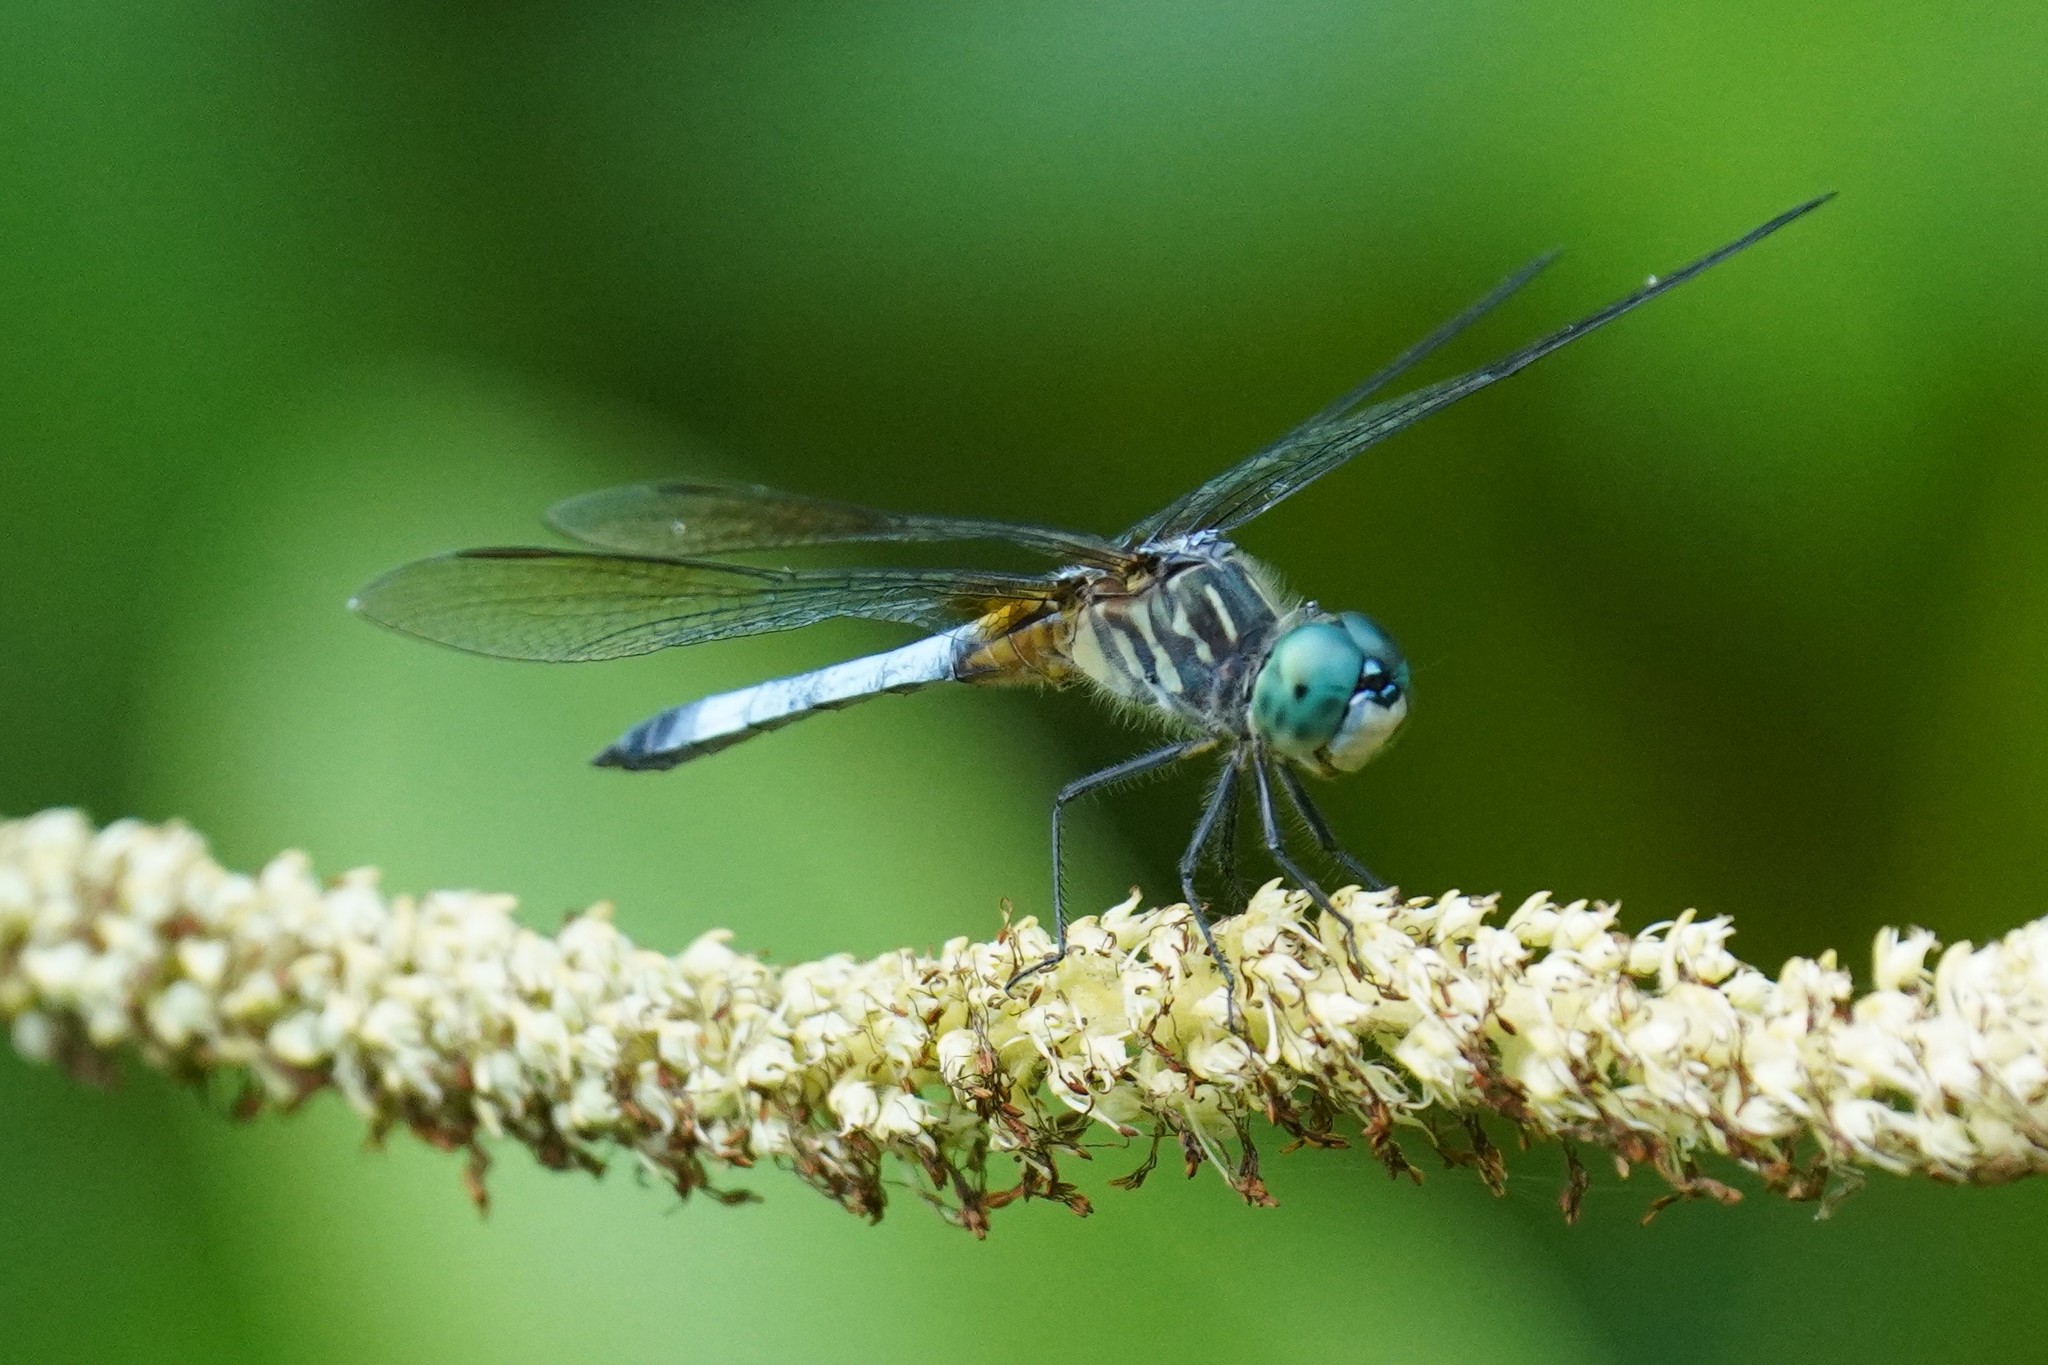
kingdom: Animalia
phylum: Arthropoda
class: Insecta
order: Odonata
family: Libellulidae
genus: Pachydiplax
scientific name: Pachydiplax longipennis
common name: Blue dasher
